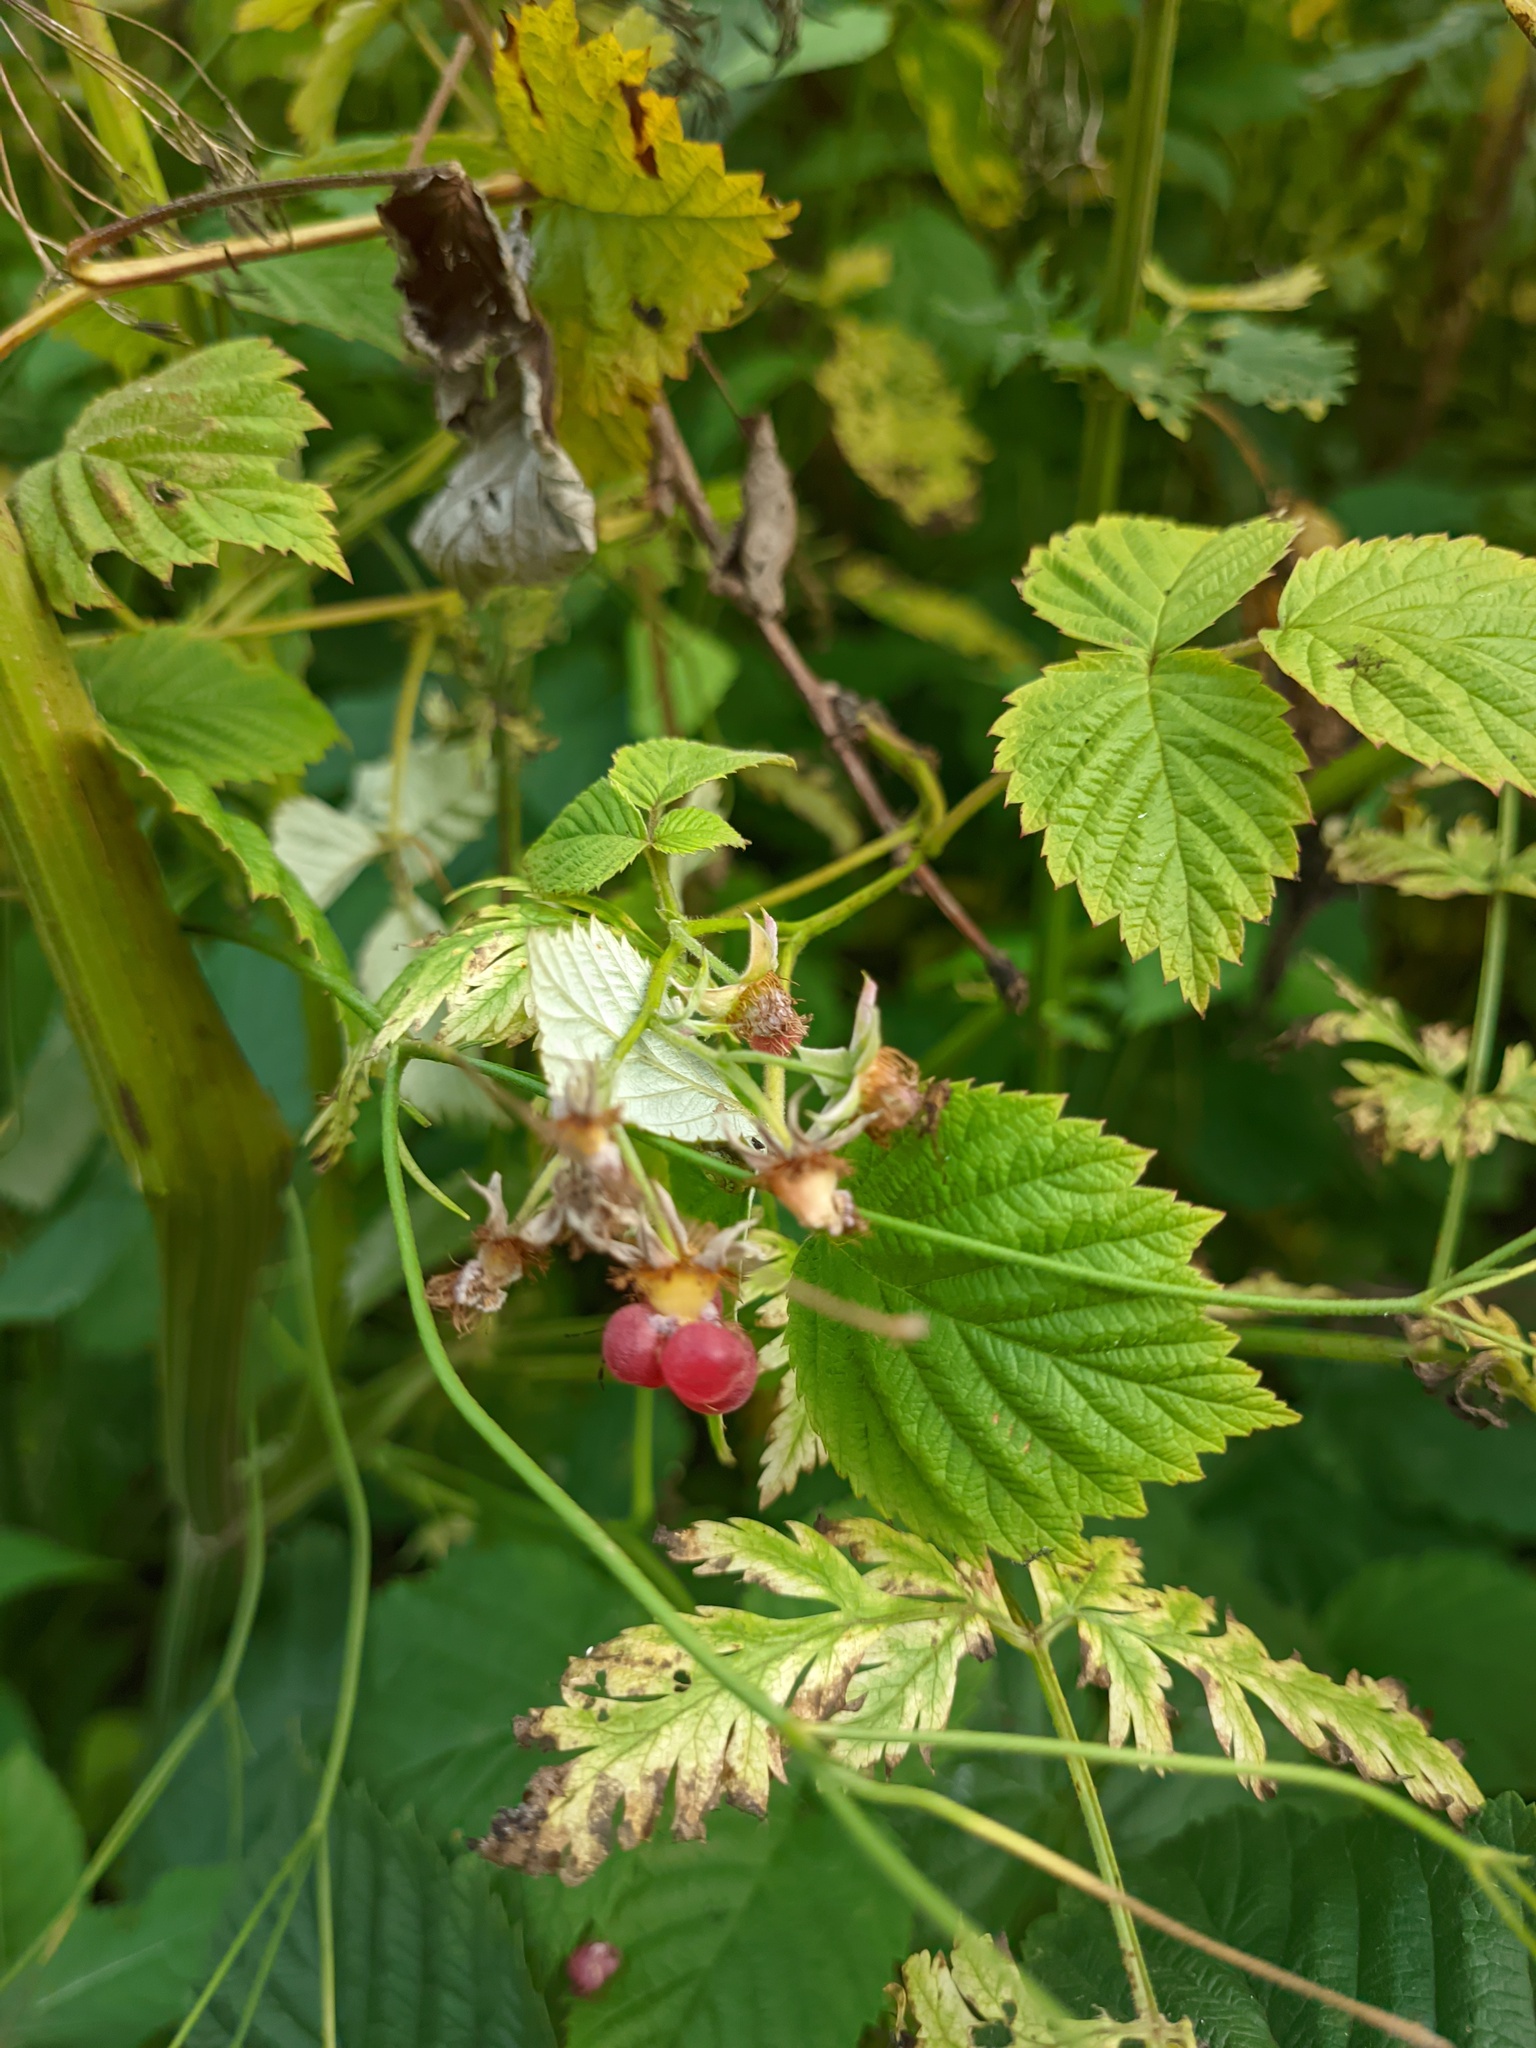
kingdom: Plantae
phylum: Tracheophyta
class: Magnoliopsida
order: Rosales
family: Rosaceae
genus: Rubus
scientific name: Rubus idaeus
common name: Raspberry
